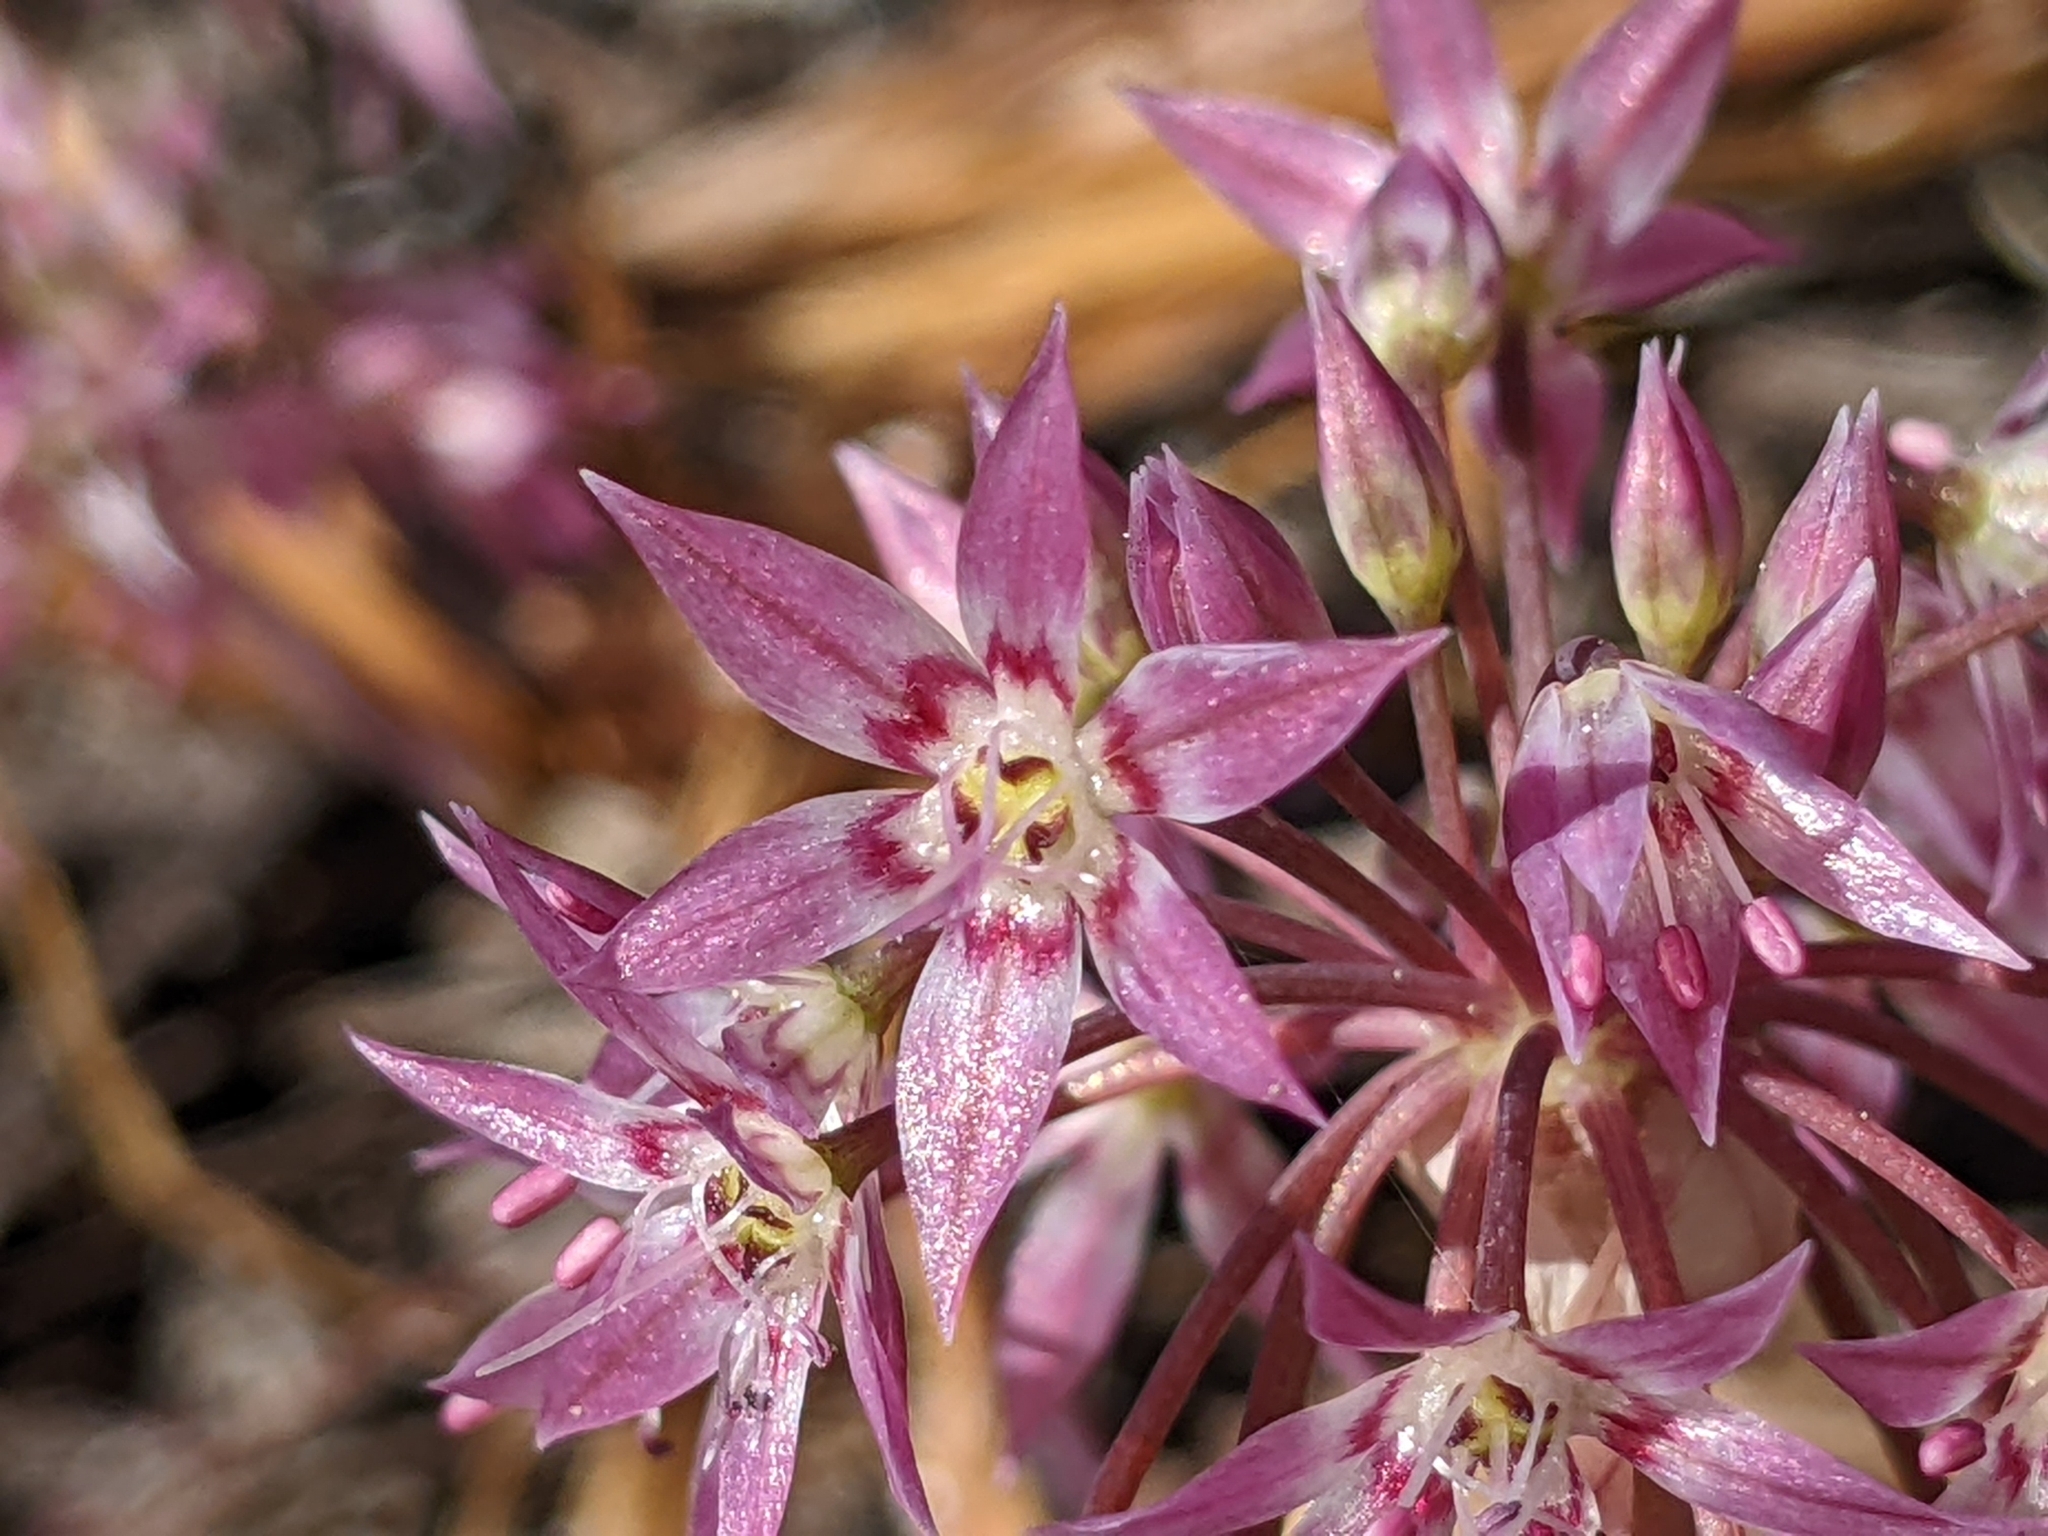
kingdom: Plantae
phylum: Tracheophyta
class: Liliopsida
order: Asparagales
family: Amaryllidaceae
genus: Allium
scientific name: Allium campanulatum
